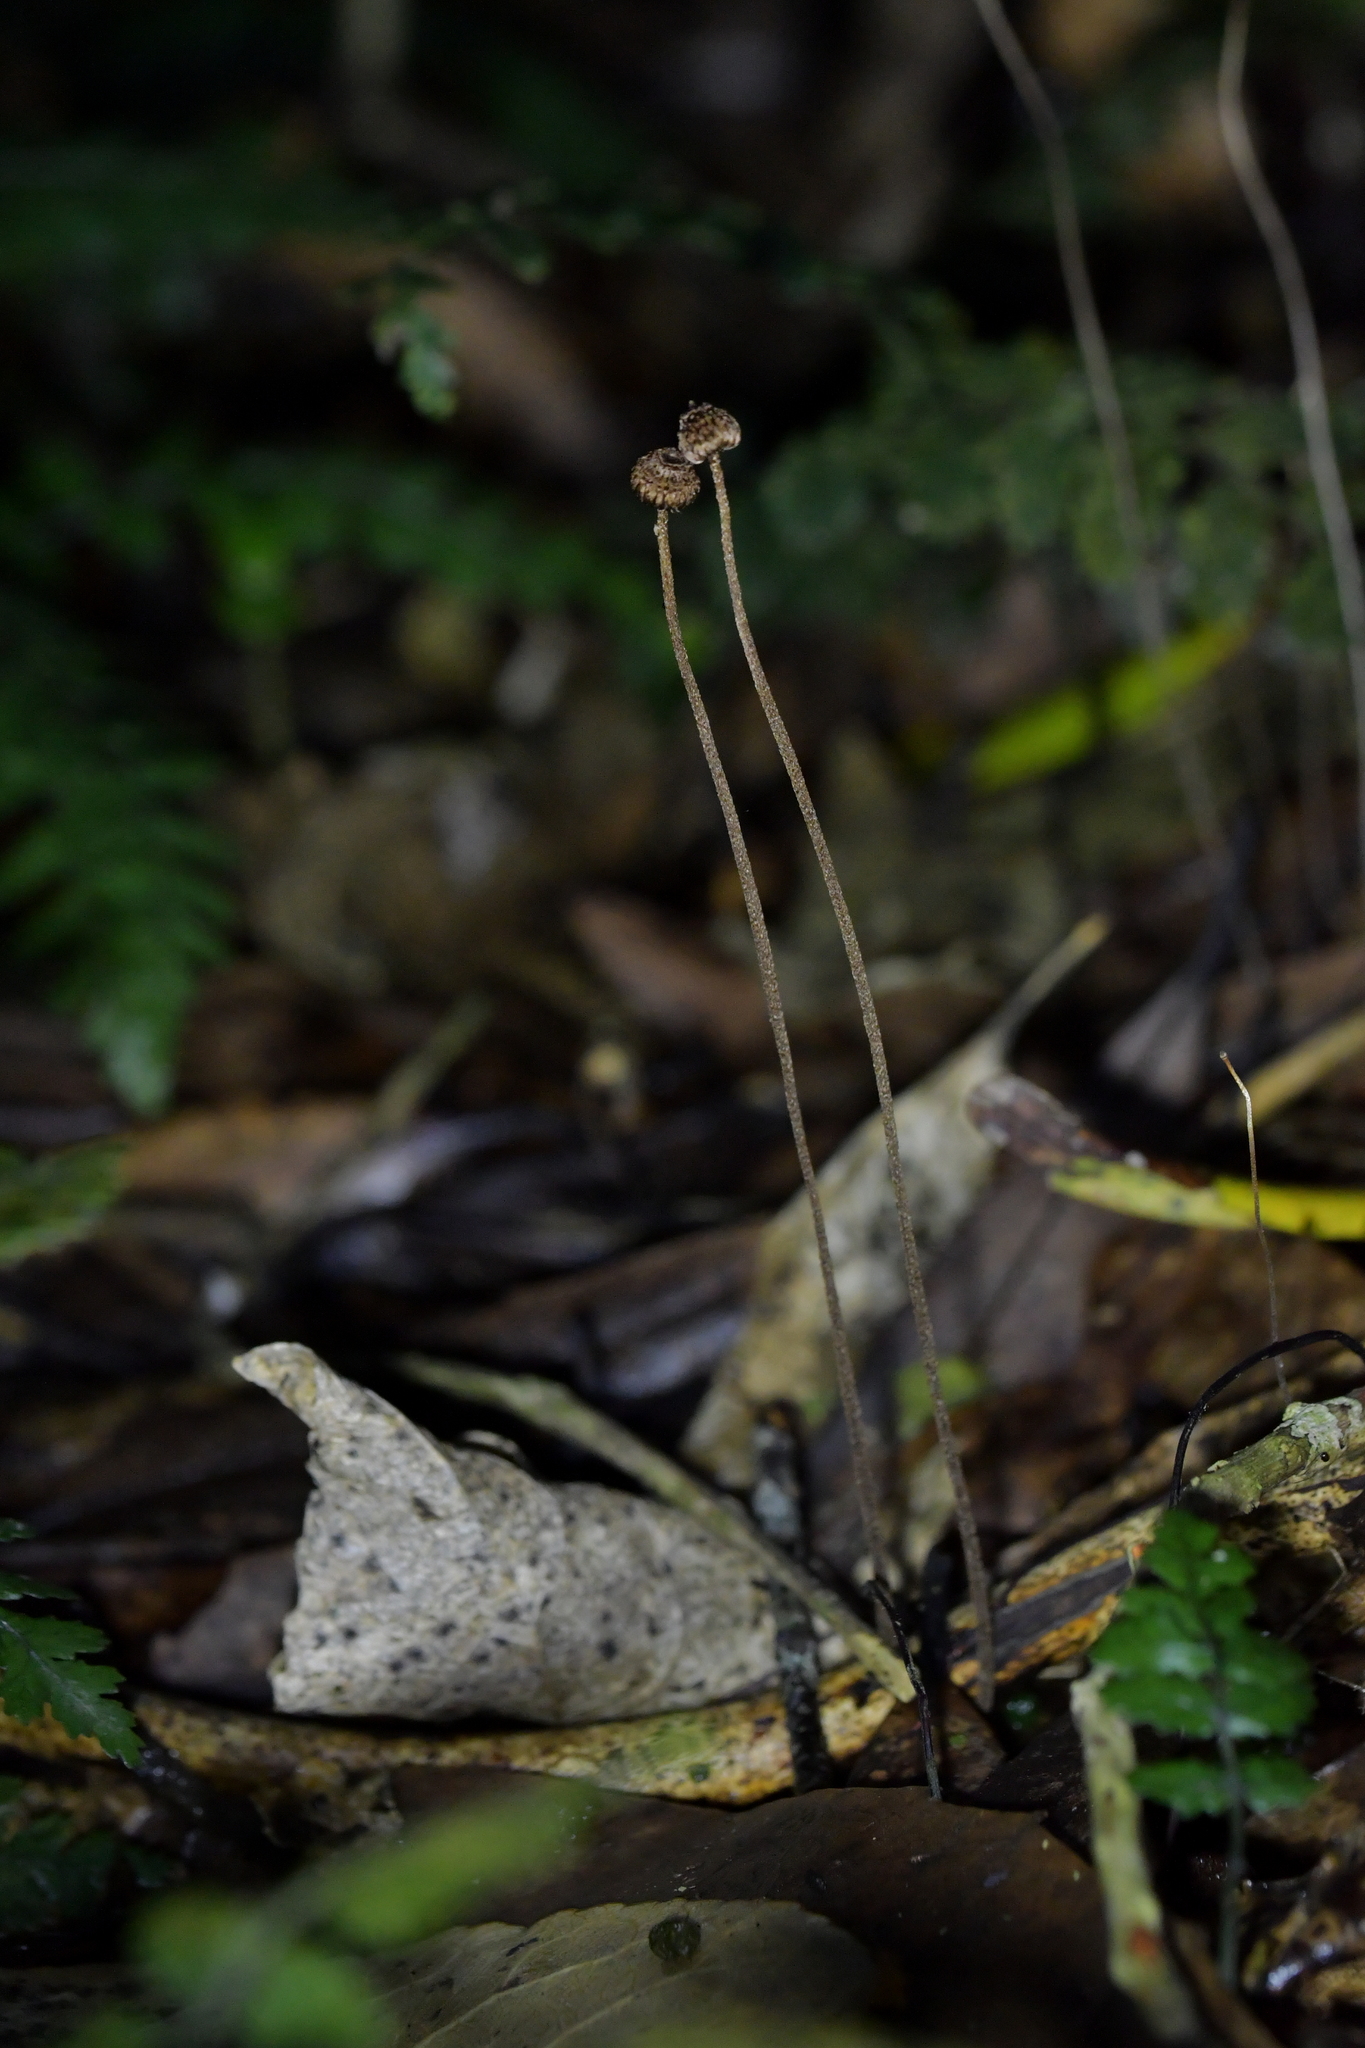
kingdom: Fungi
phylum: Basidiomycota
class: Agaricomycetes
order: Agaricales
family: Marasmiaceae
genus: Crinipellis
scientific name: Crinipellis procera
